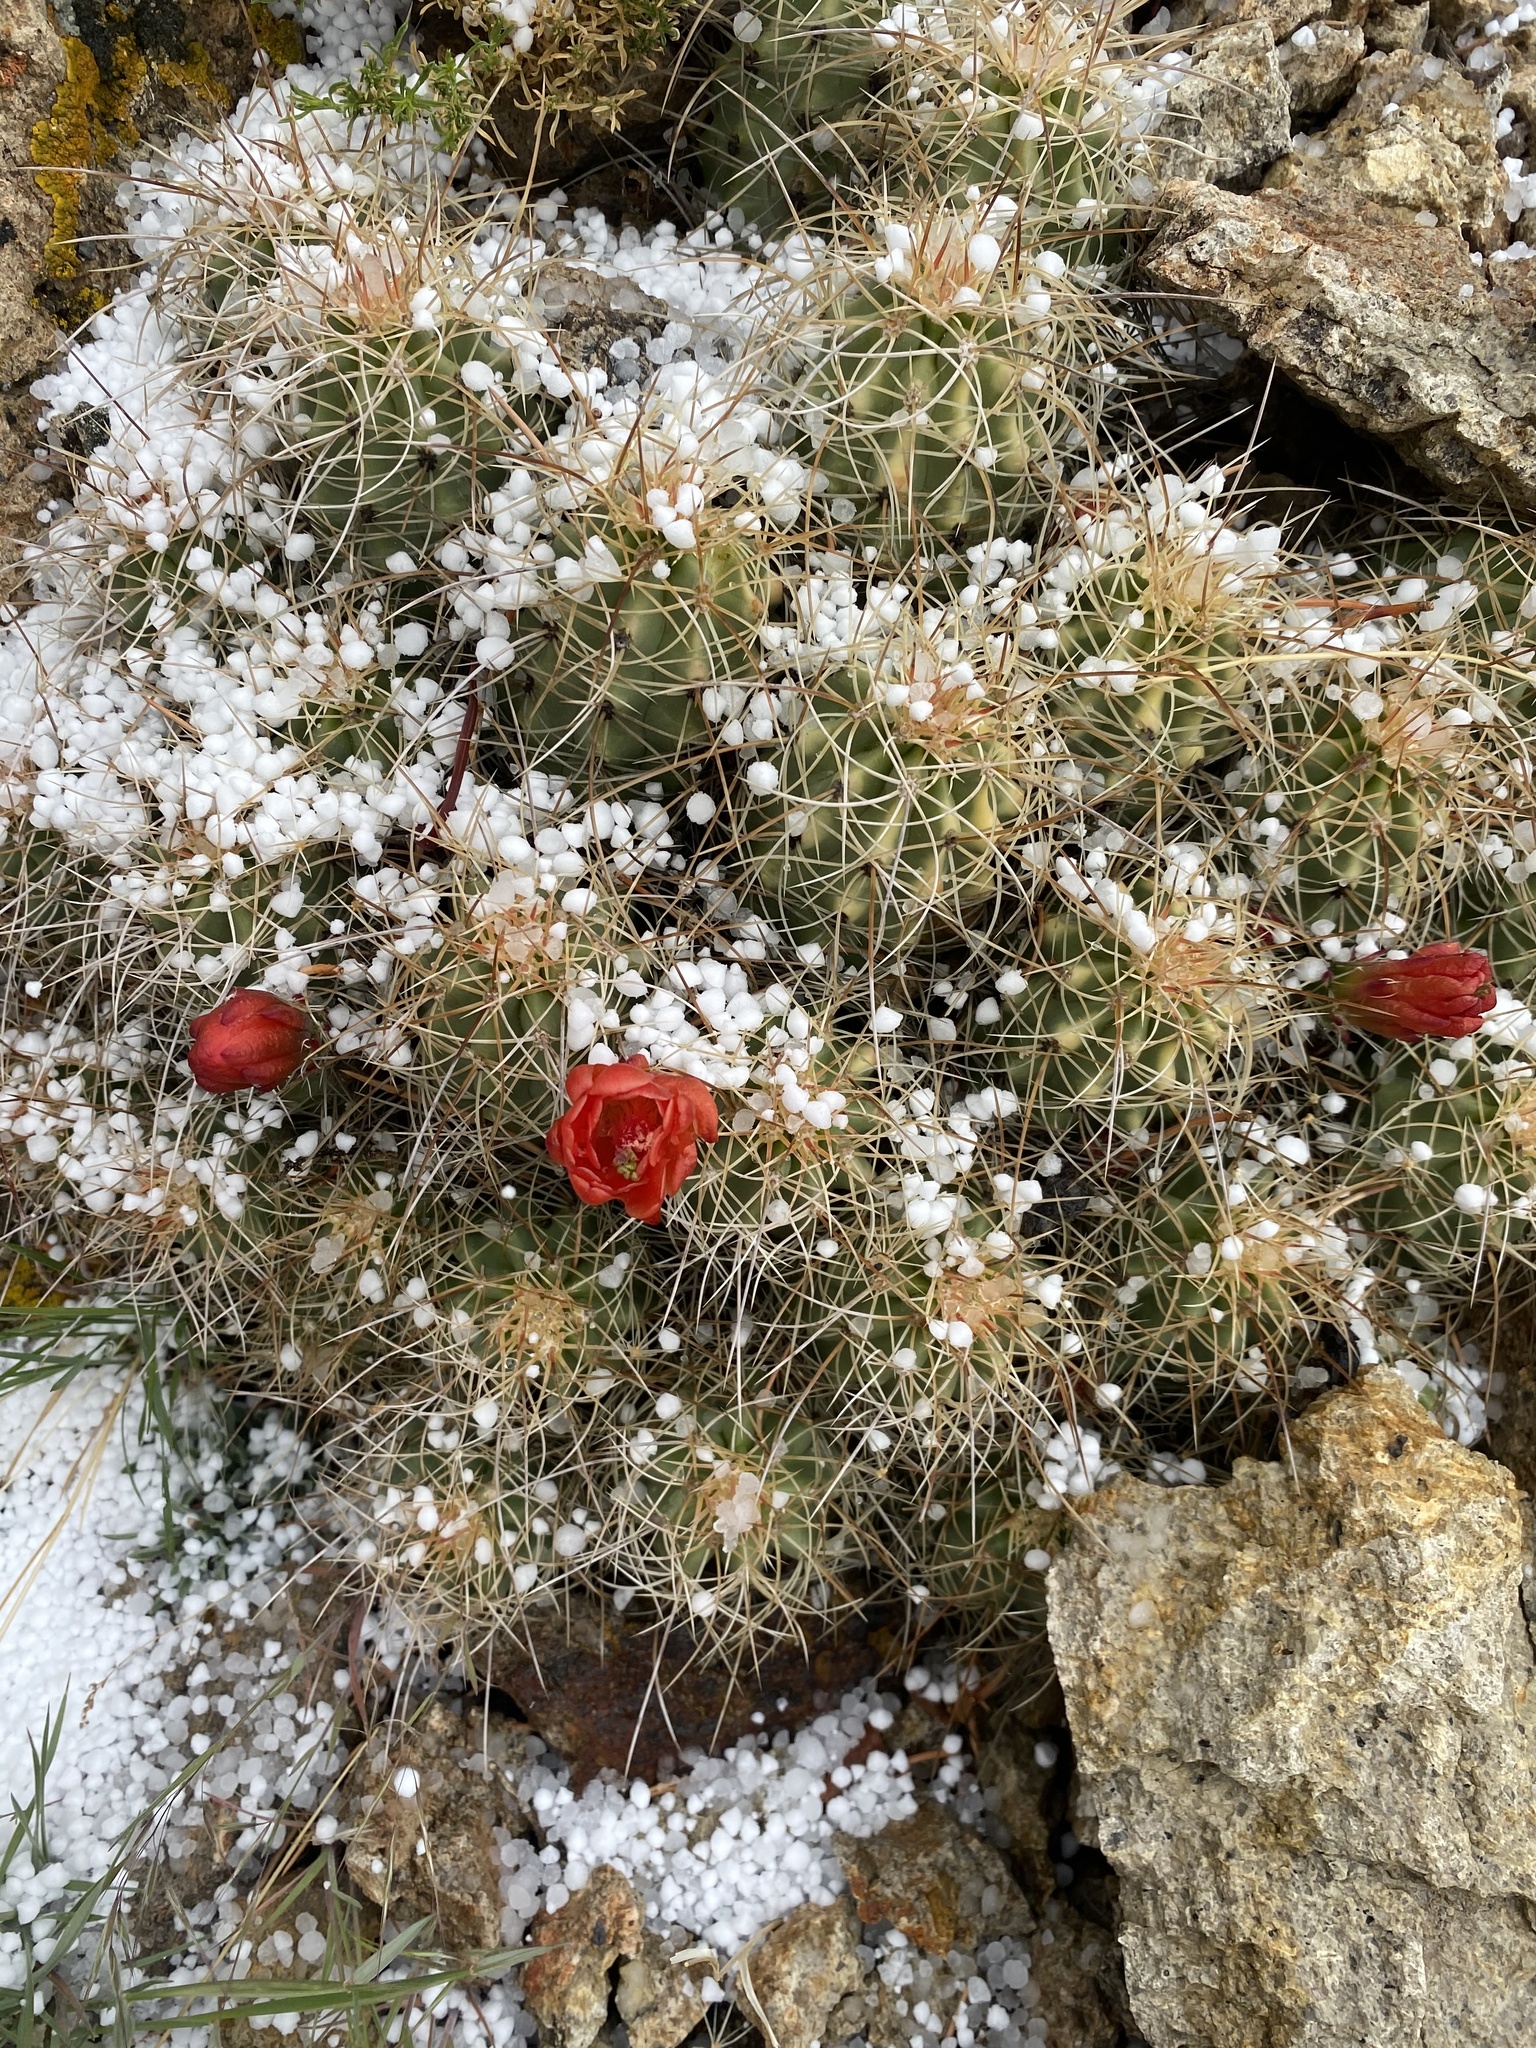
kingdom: Plantae
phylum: Tracheophyta
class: Magnoliopsida
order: Caryophyllales
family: Cactaceae
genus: Echinocereus
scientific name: Echinocereus triglochidiatus
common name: Claretcup hedgehog
